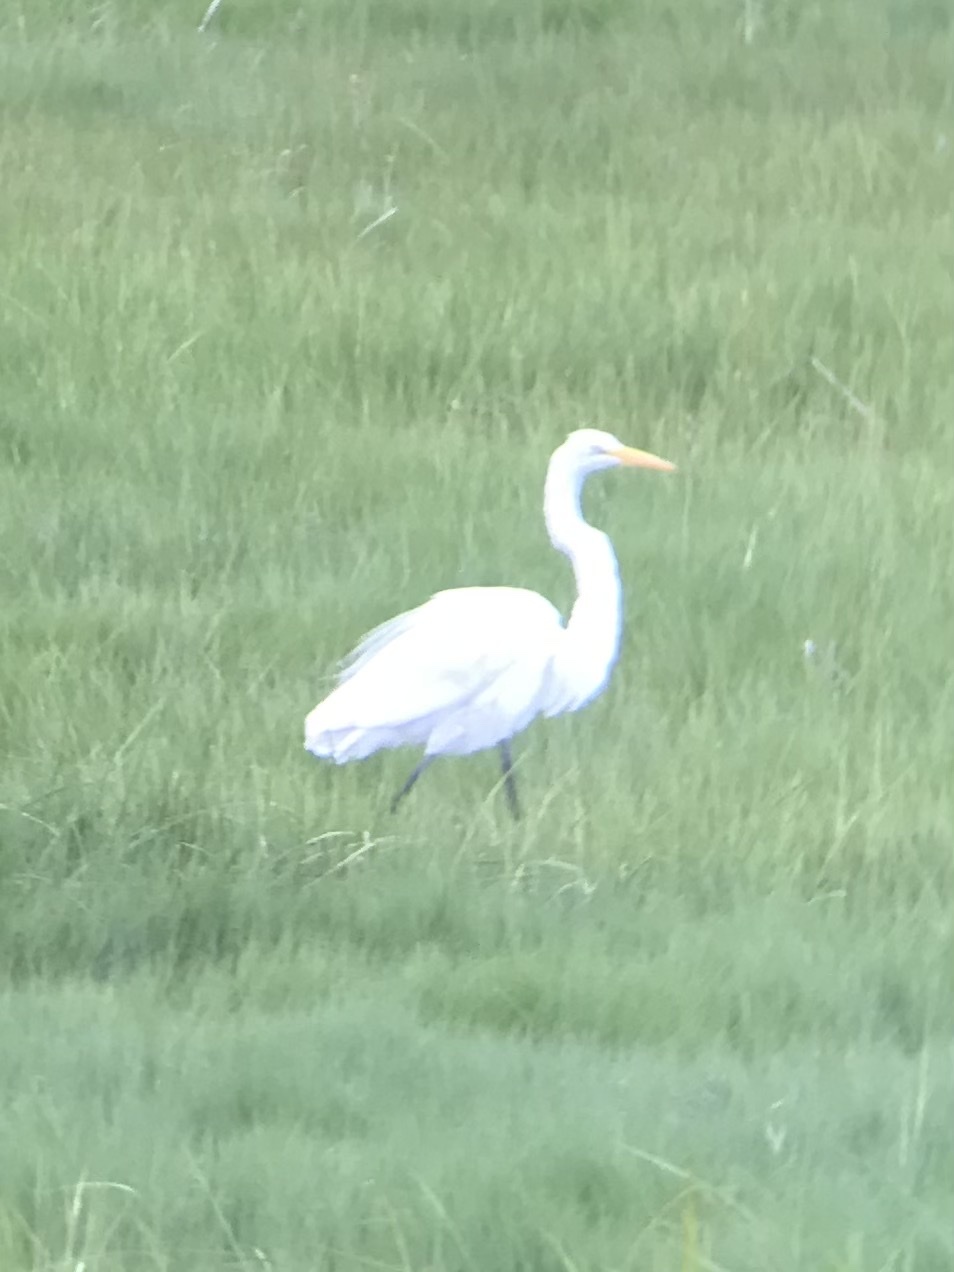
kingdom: Animalia
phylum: Chordata
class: Aves
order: Pelecaniformes
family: Ardeidae
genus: Ardea
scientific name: Ardea alba
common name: Great egret
